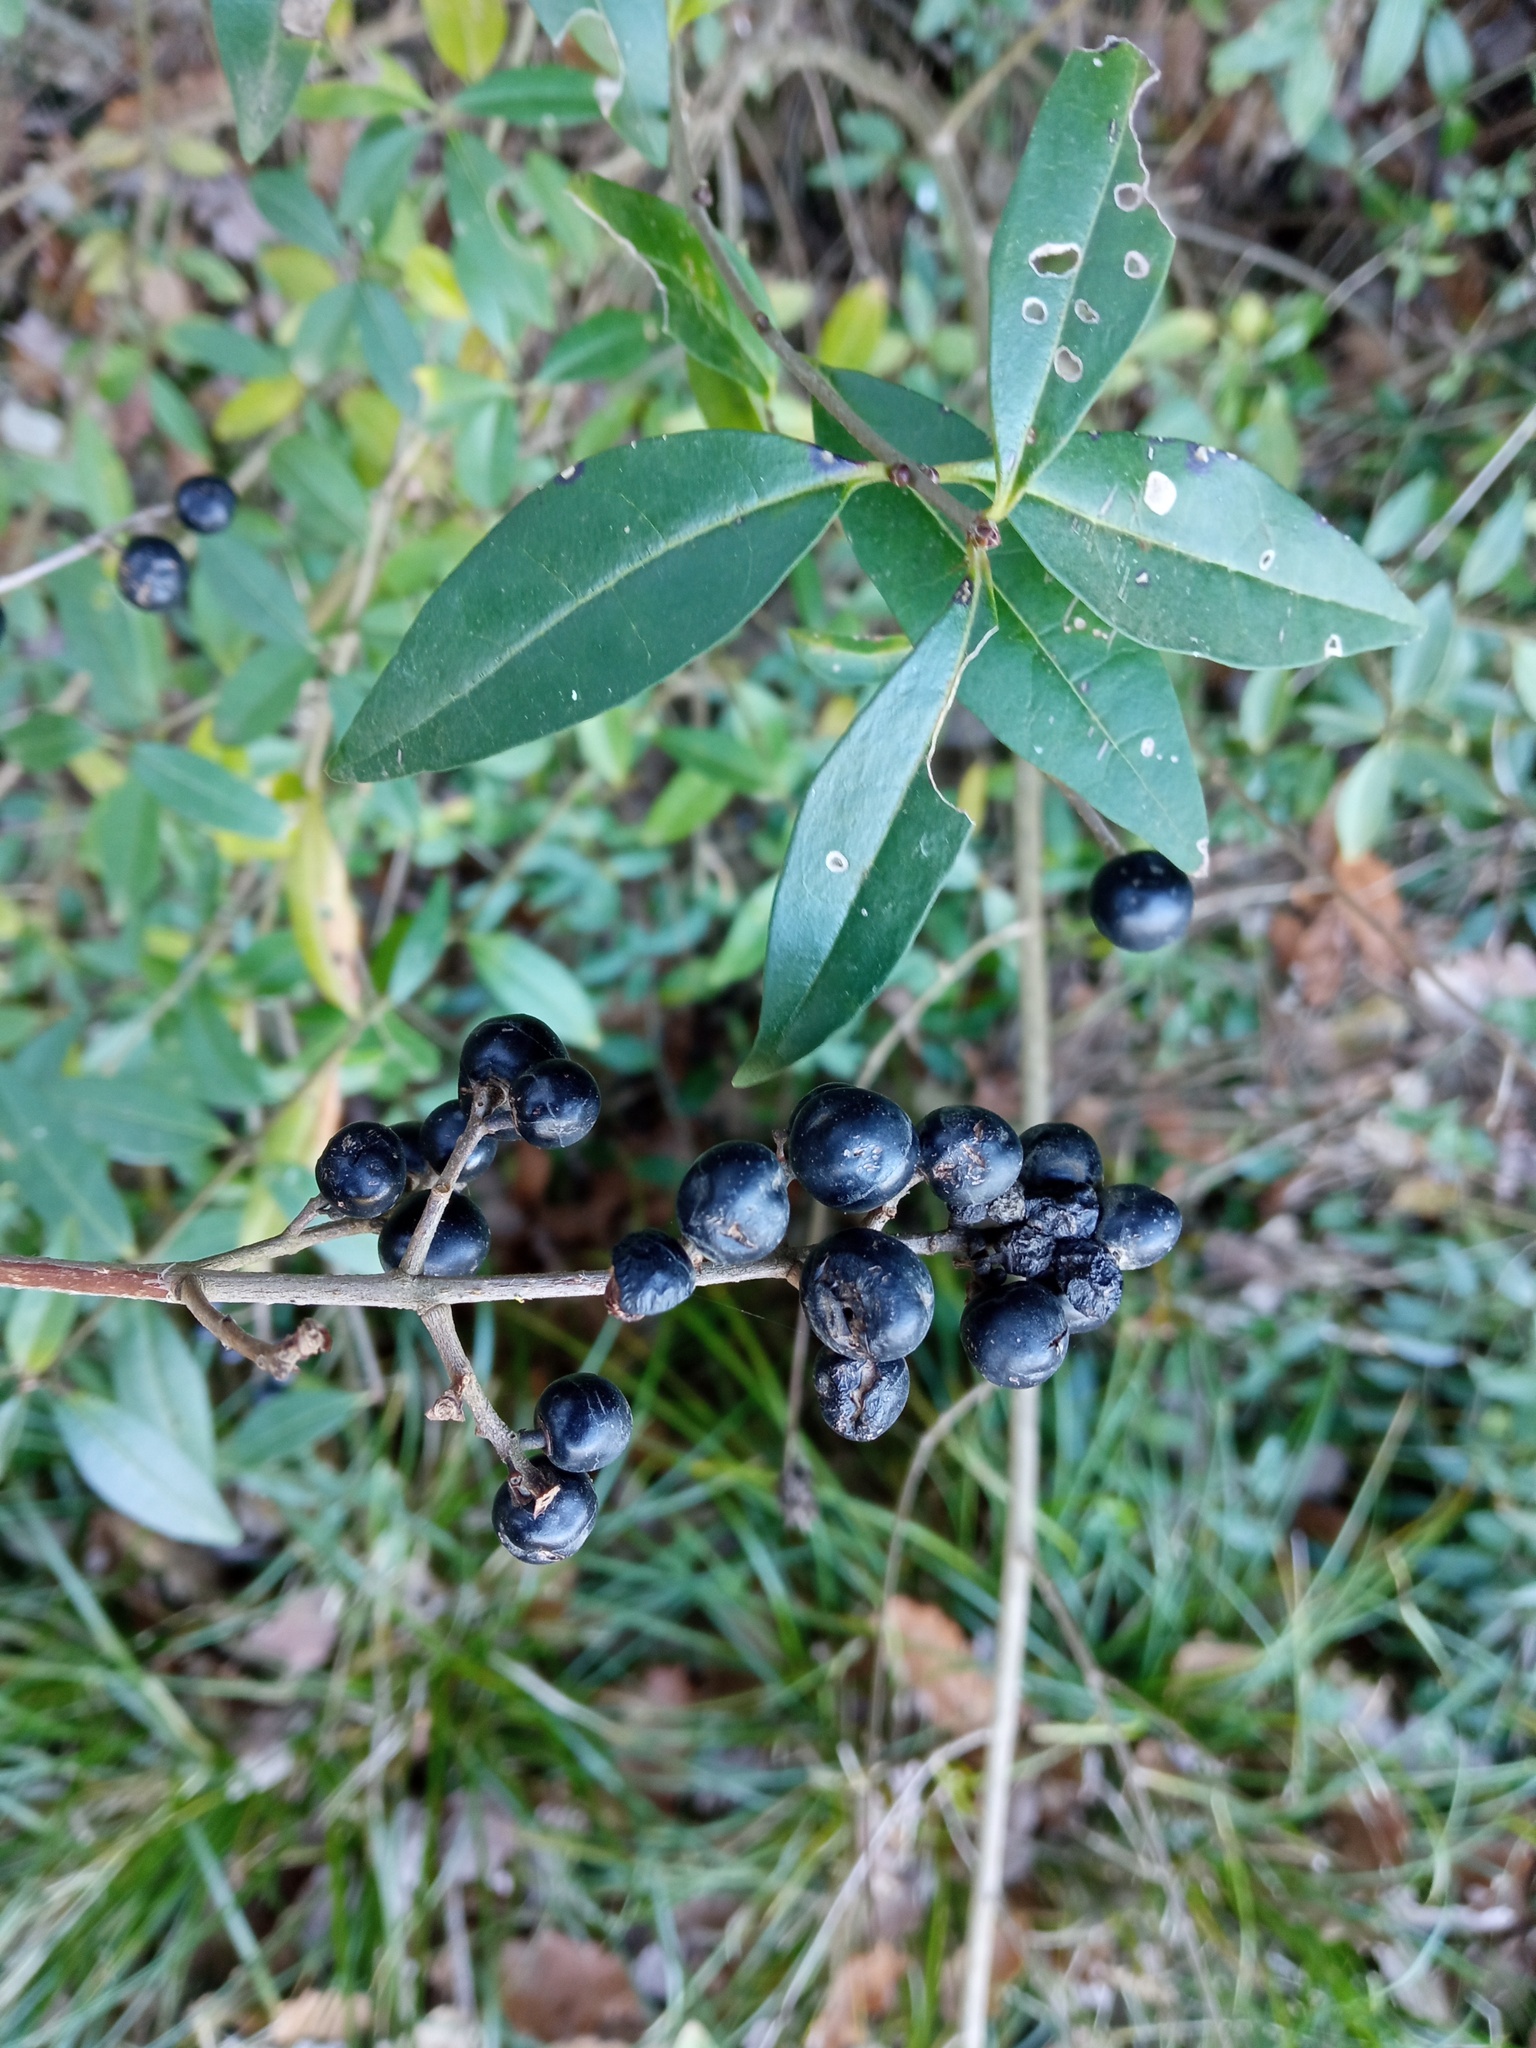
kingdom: Plantae
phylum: Tracheophyta
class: Magnoliopsida
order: Lamiales
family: Oleaceae
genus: Ligustrum
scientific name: Ligustrum vulgare
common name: Wild privet
